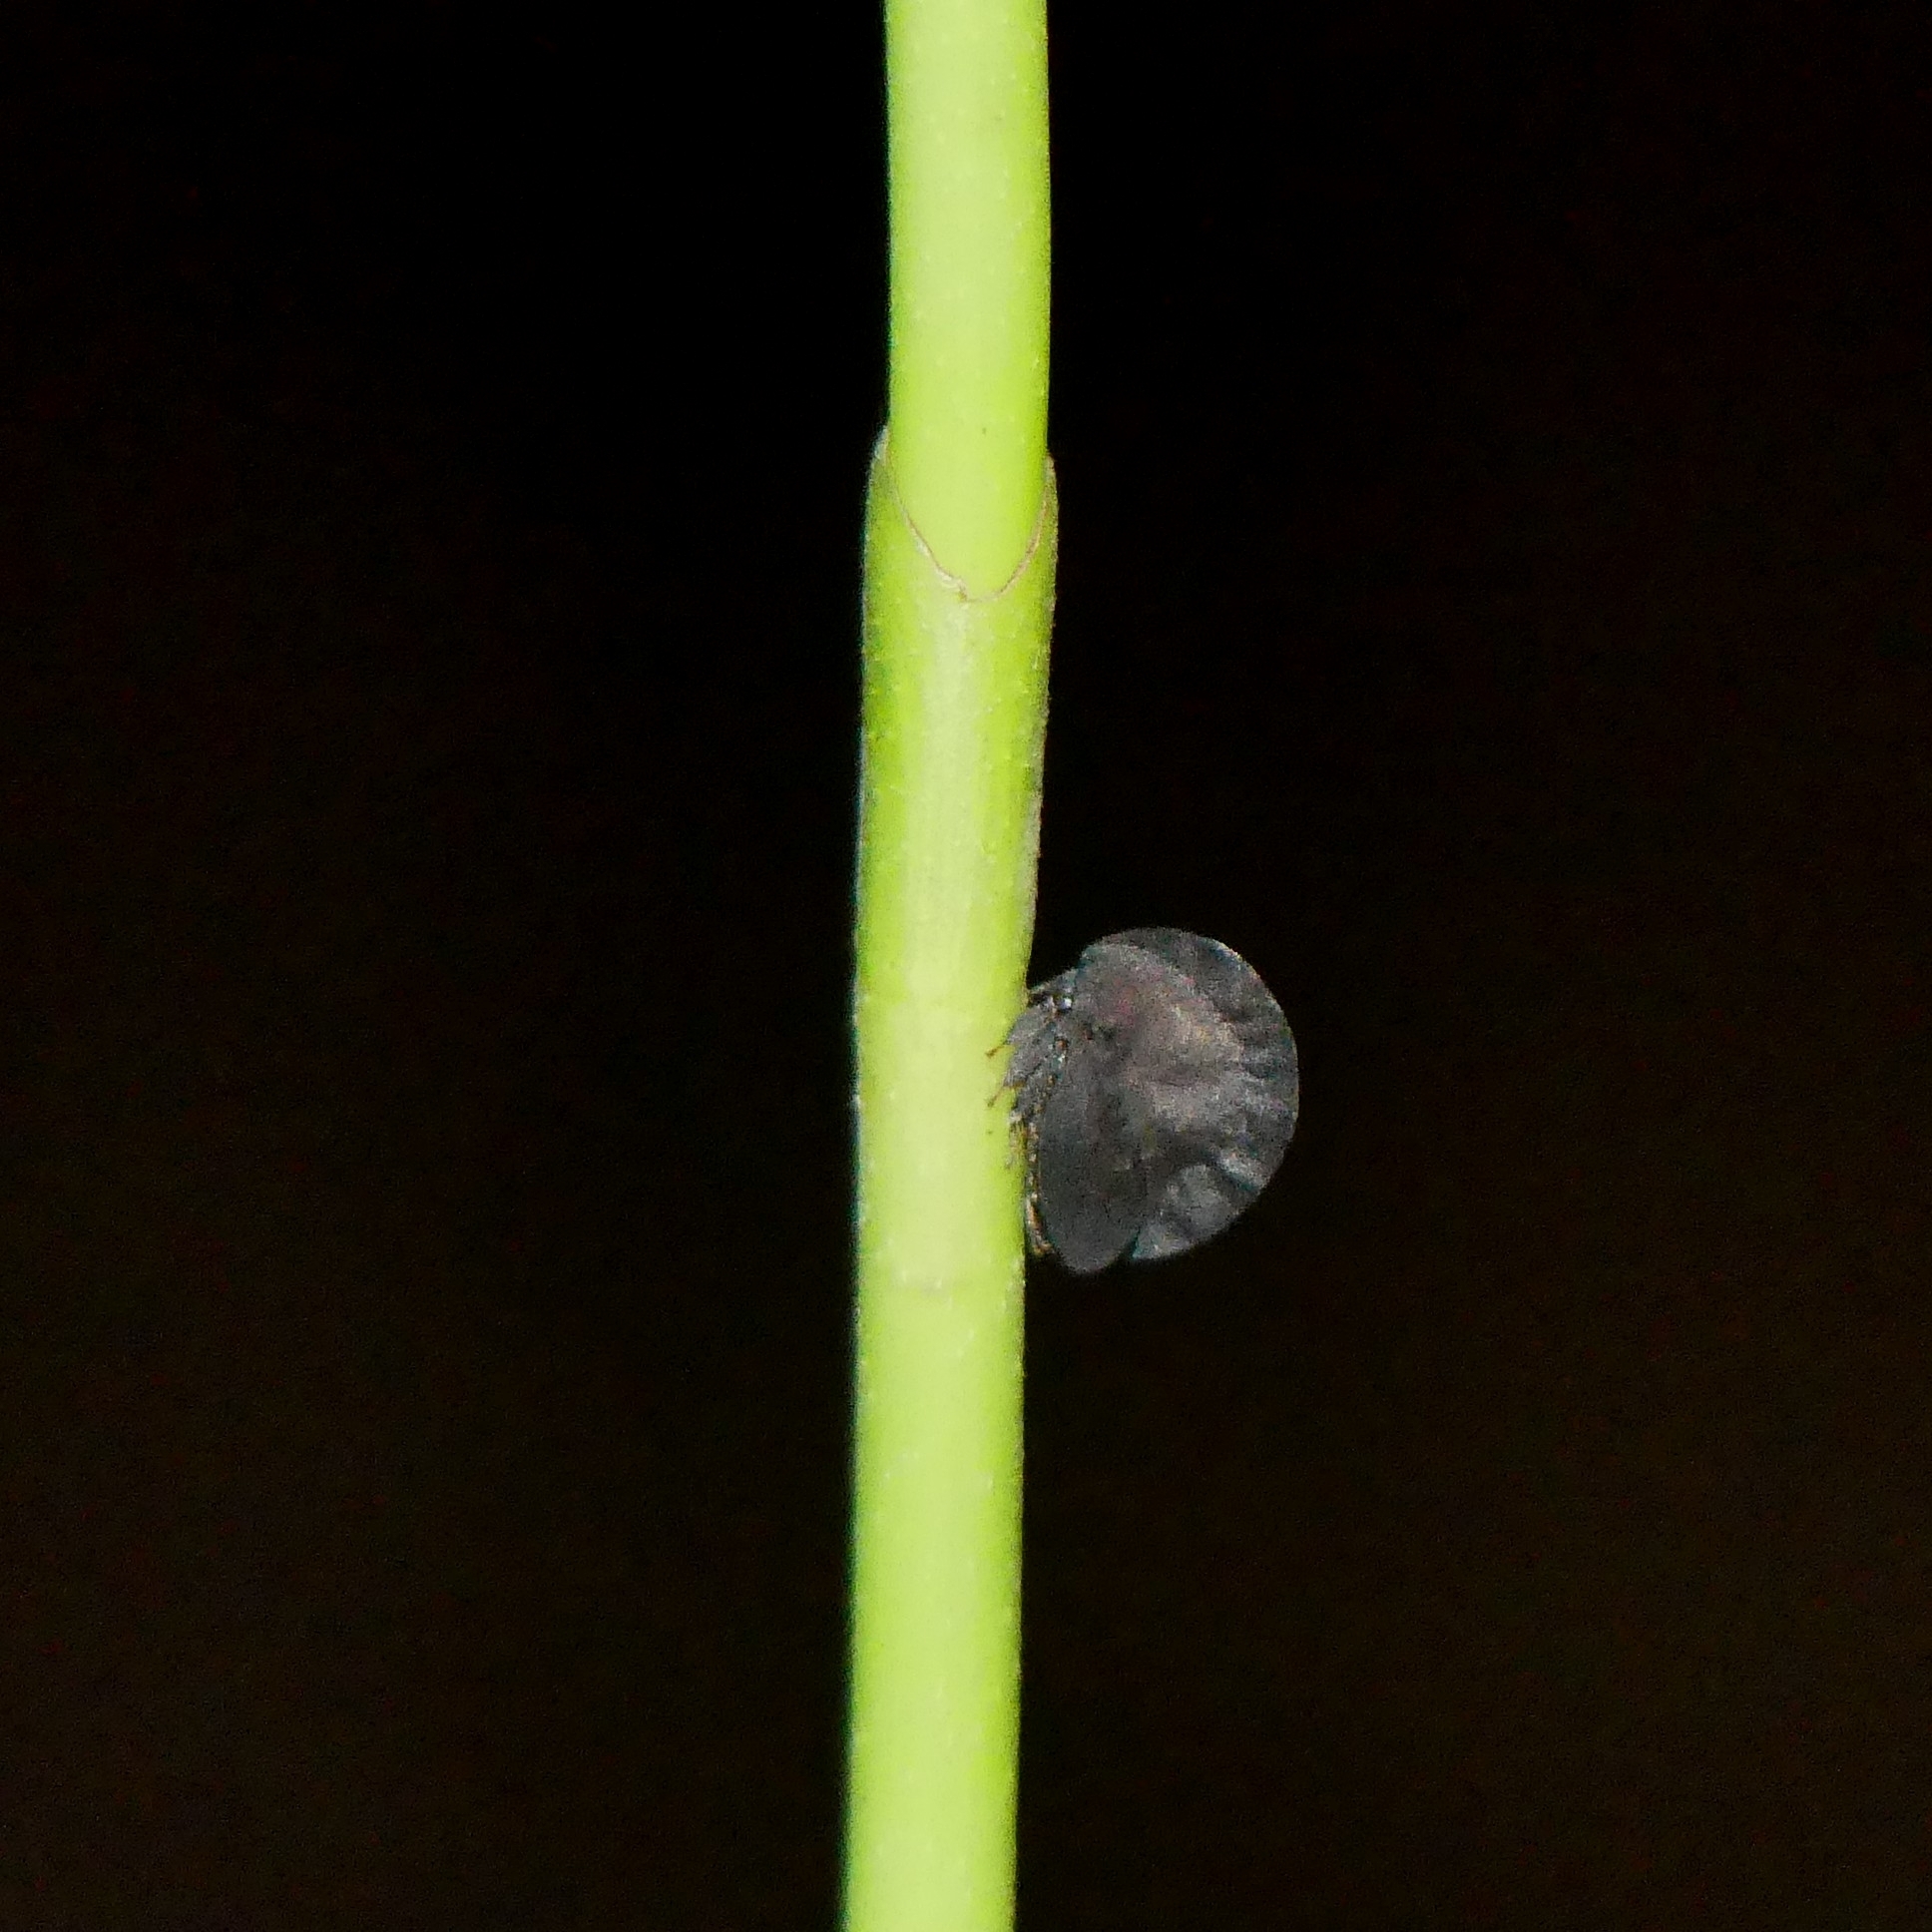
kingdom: Animalia
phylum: Arthropoda
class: Insecta
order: Hemiptera
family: Membracidae
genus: Membracis
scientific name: Membracis foliatafusca
